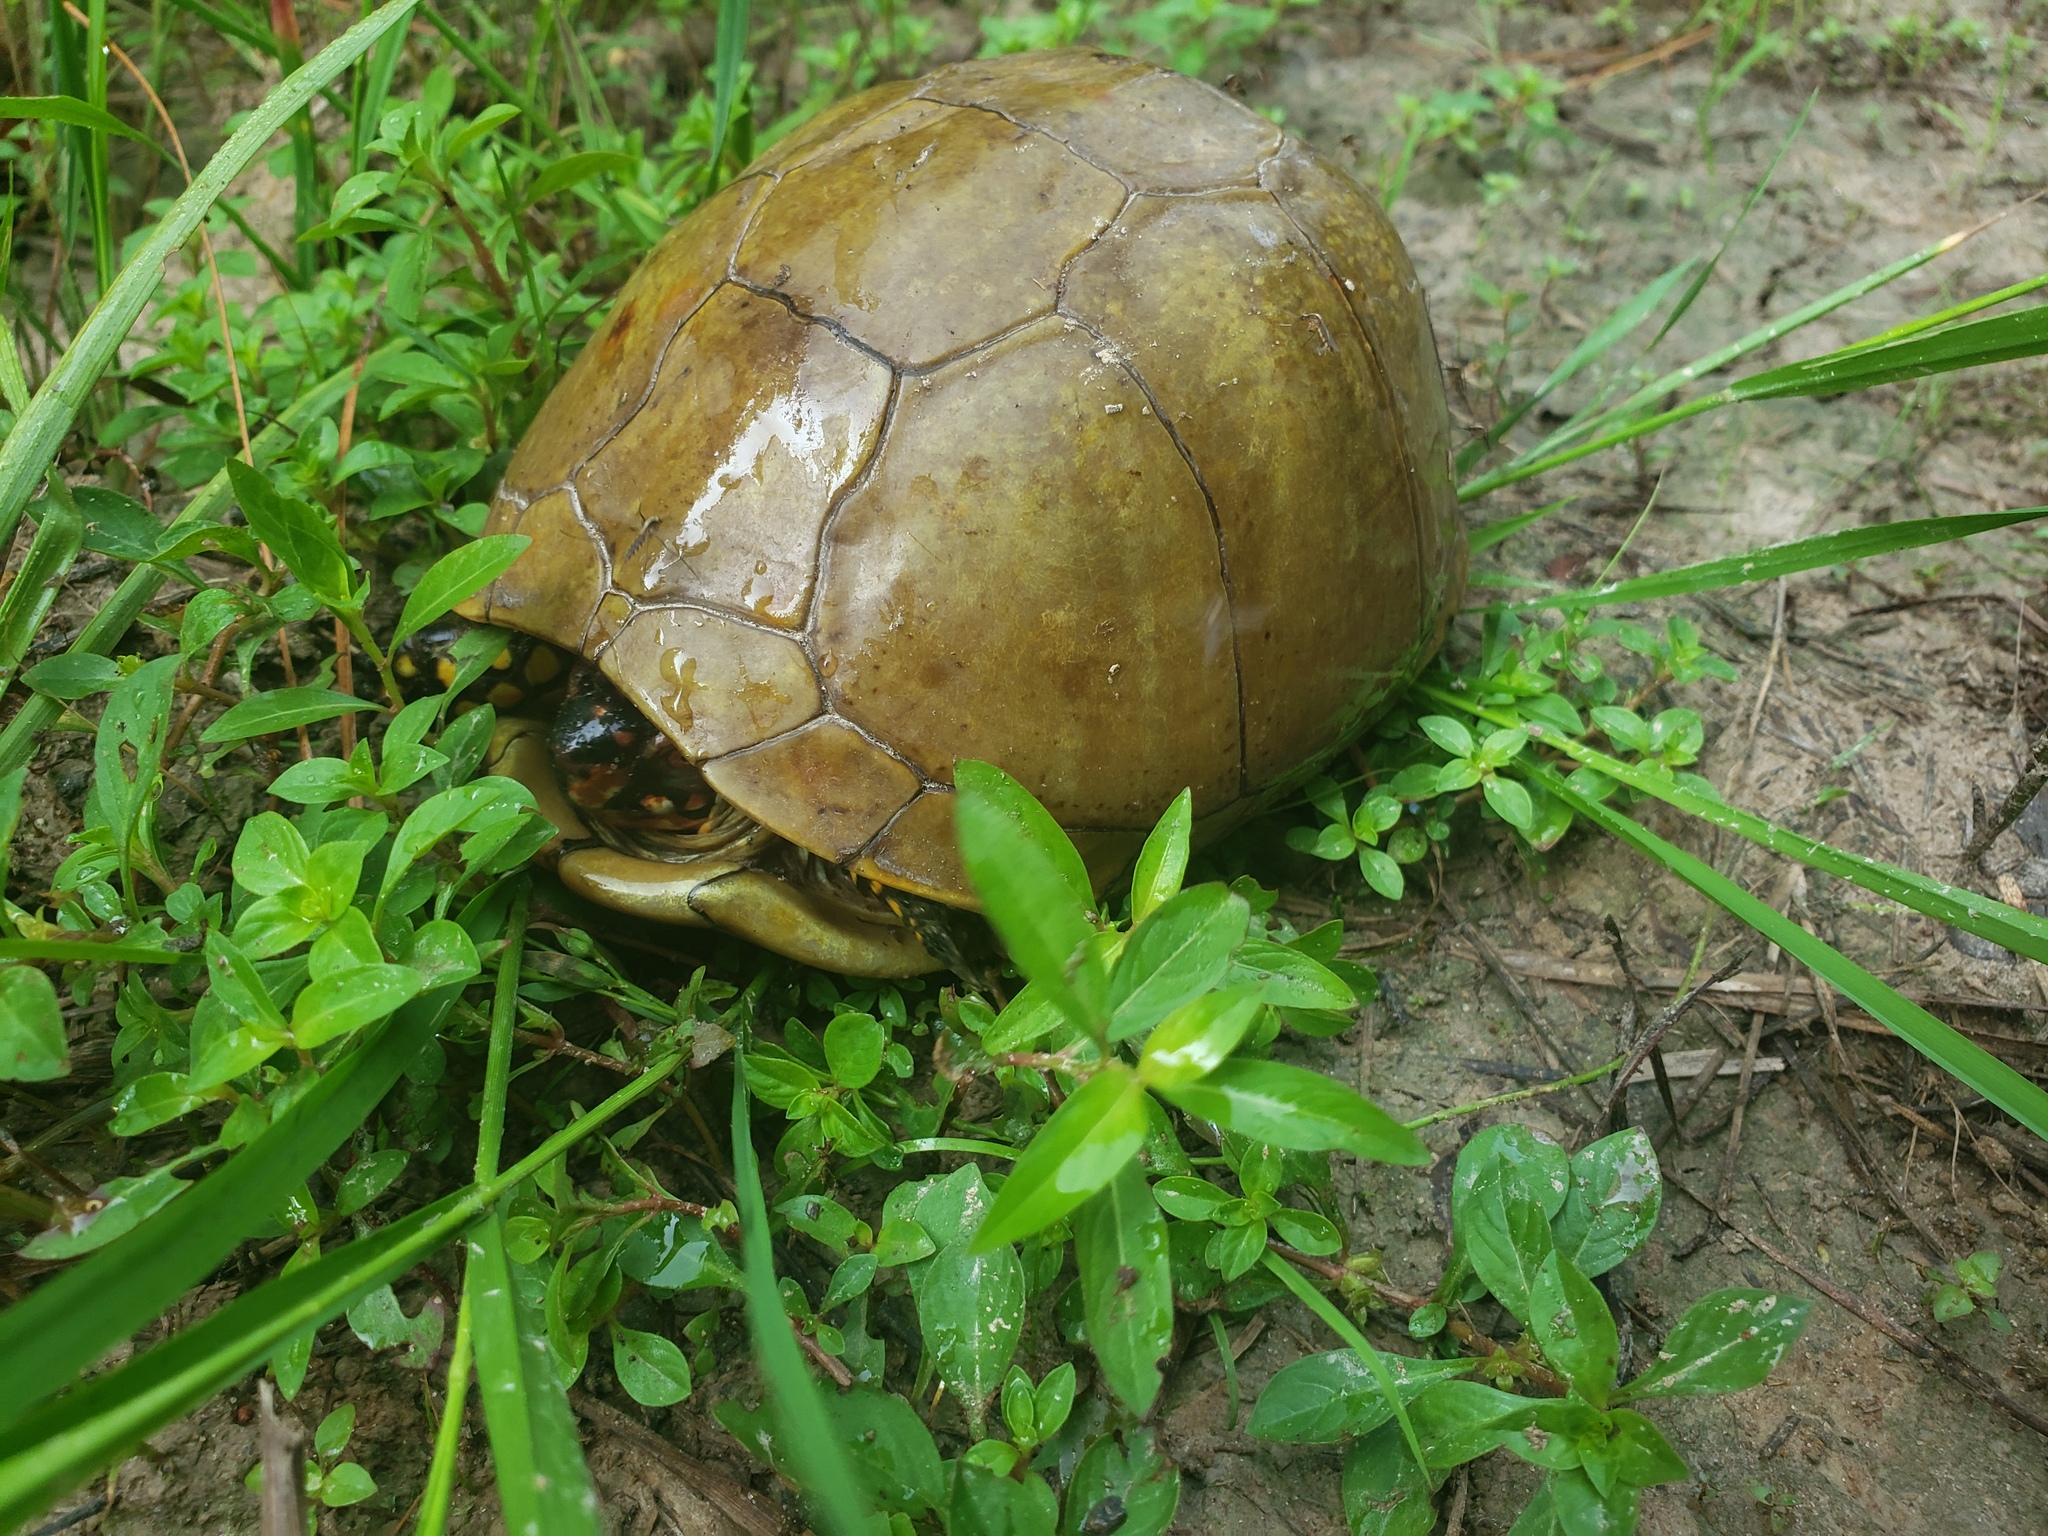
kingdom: Animalia
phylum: Chordata
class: Testudines
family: Emydidae
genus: Terrapene
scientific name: Terrapene carolina
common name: Common box turtle
